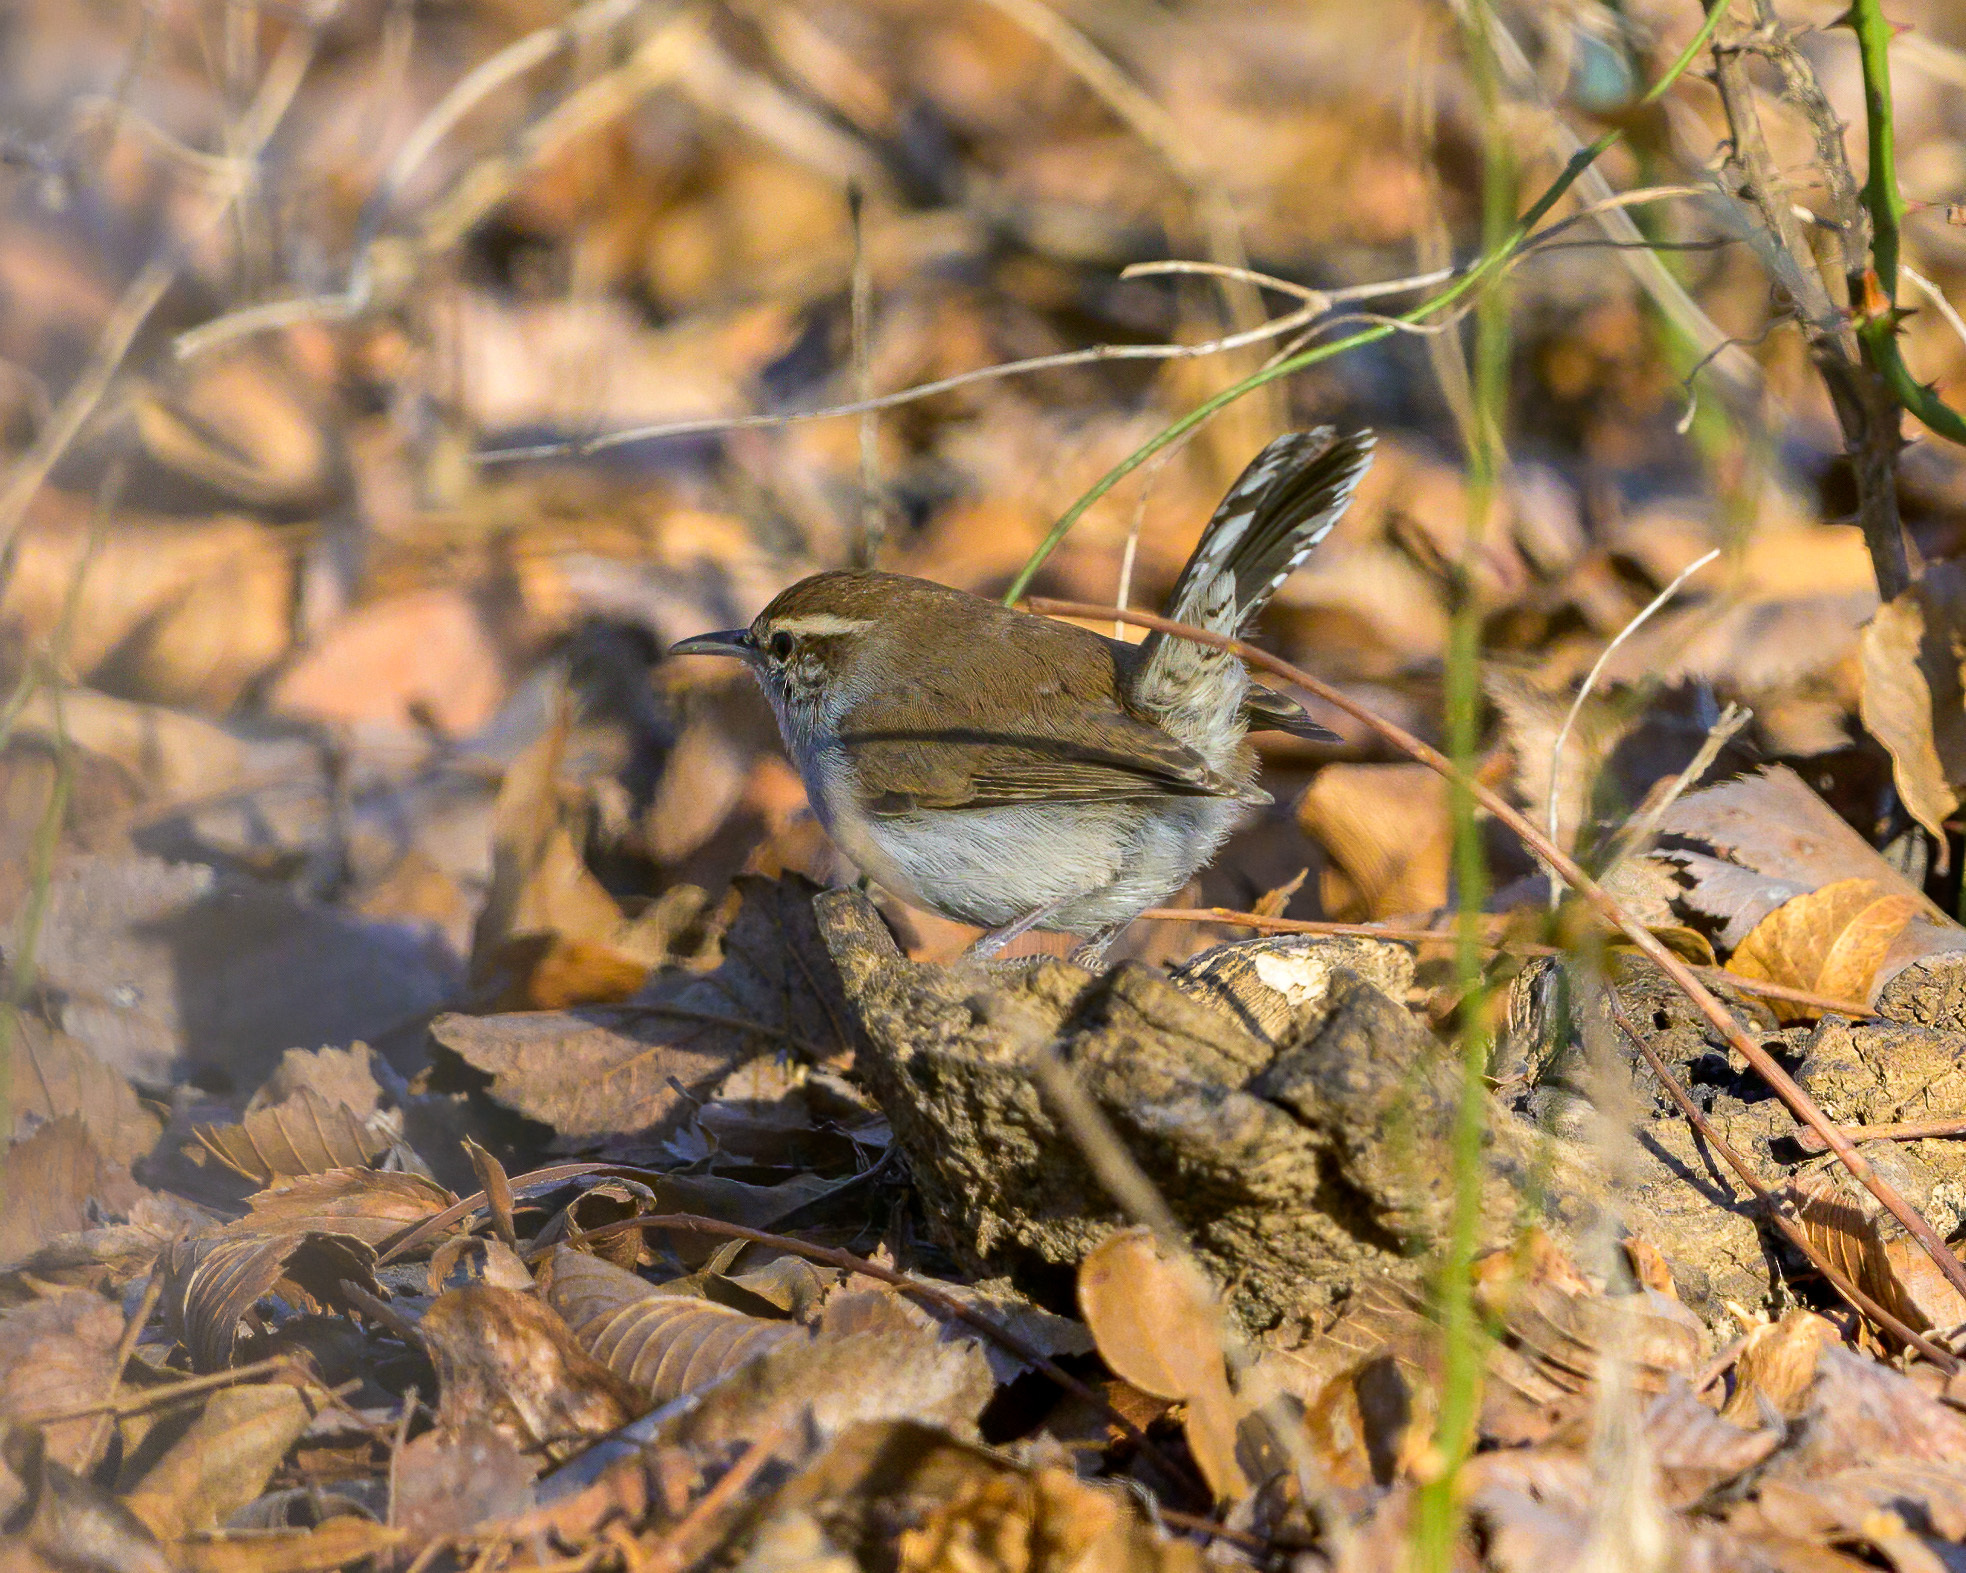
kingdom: Animalia
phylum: Chordata
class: Aves
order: Passeriformes
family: Troglodytidae
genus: Thryomanes
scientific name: Thryomanes bewickii
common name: Bewick's wren
